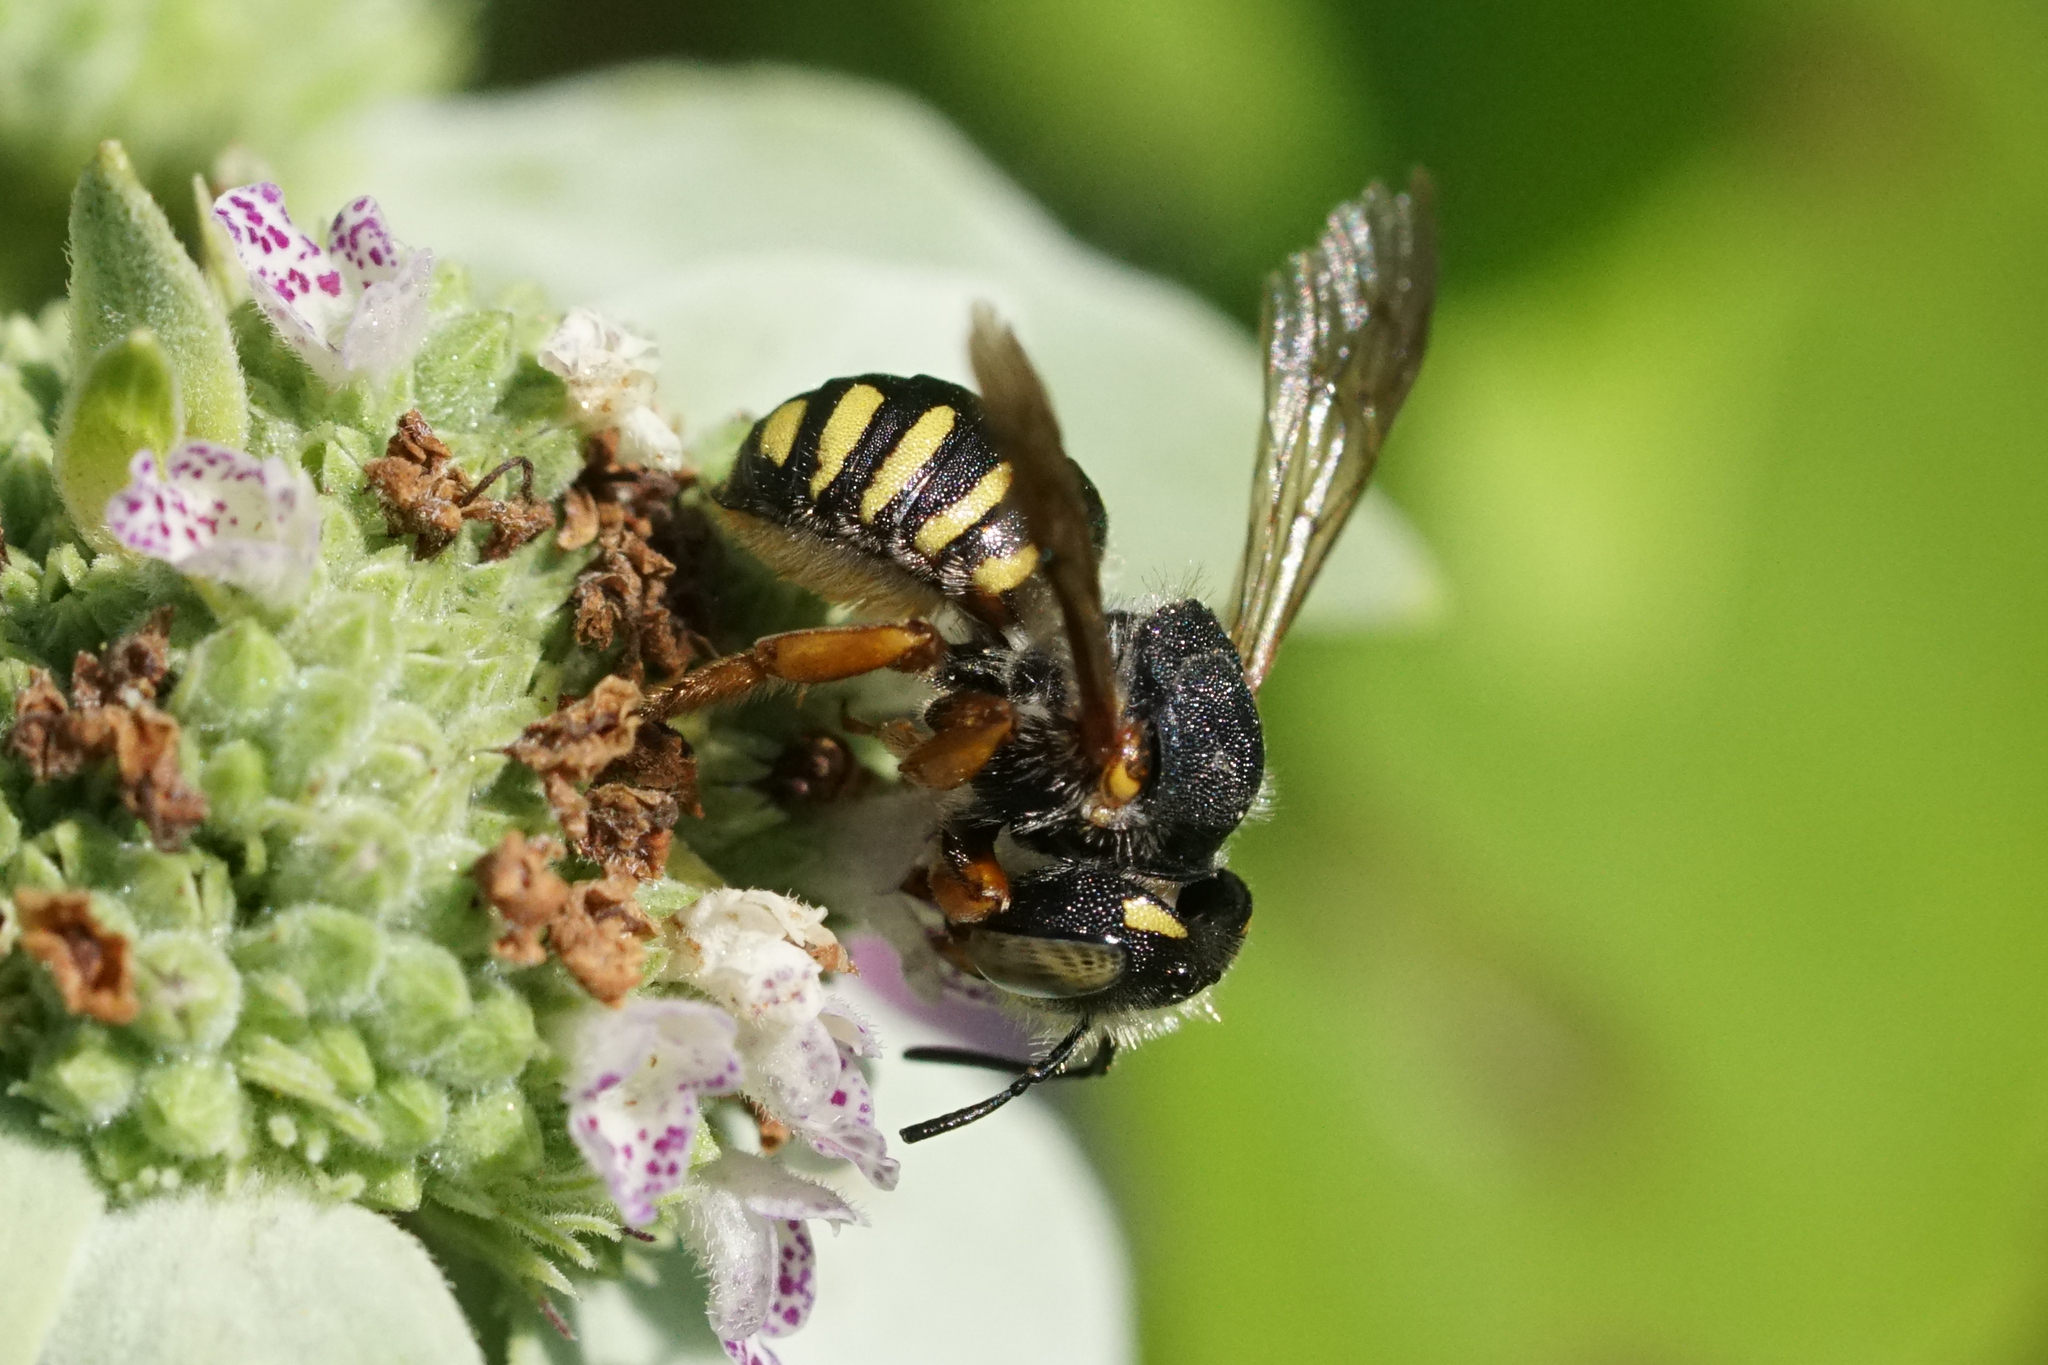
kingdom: Animalia
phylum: Arthropoda
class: Insecta
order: Hymenoptera
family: Megachilidae
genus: Anthidium
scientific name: Anthidium oblongatum
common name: Oblong wool carder bee
